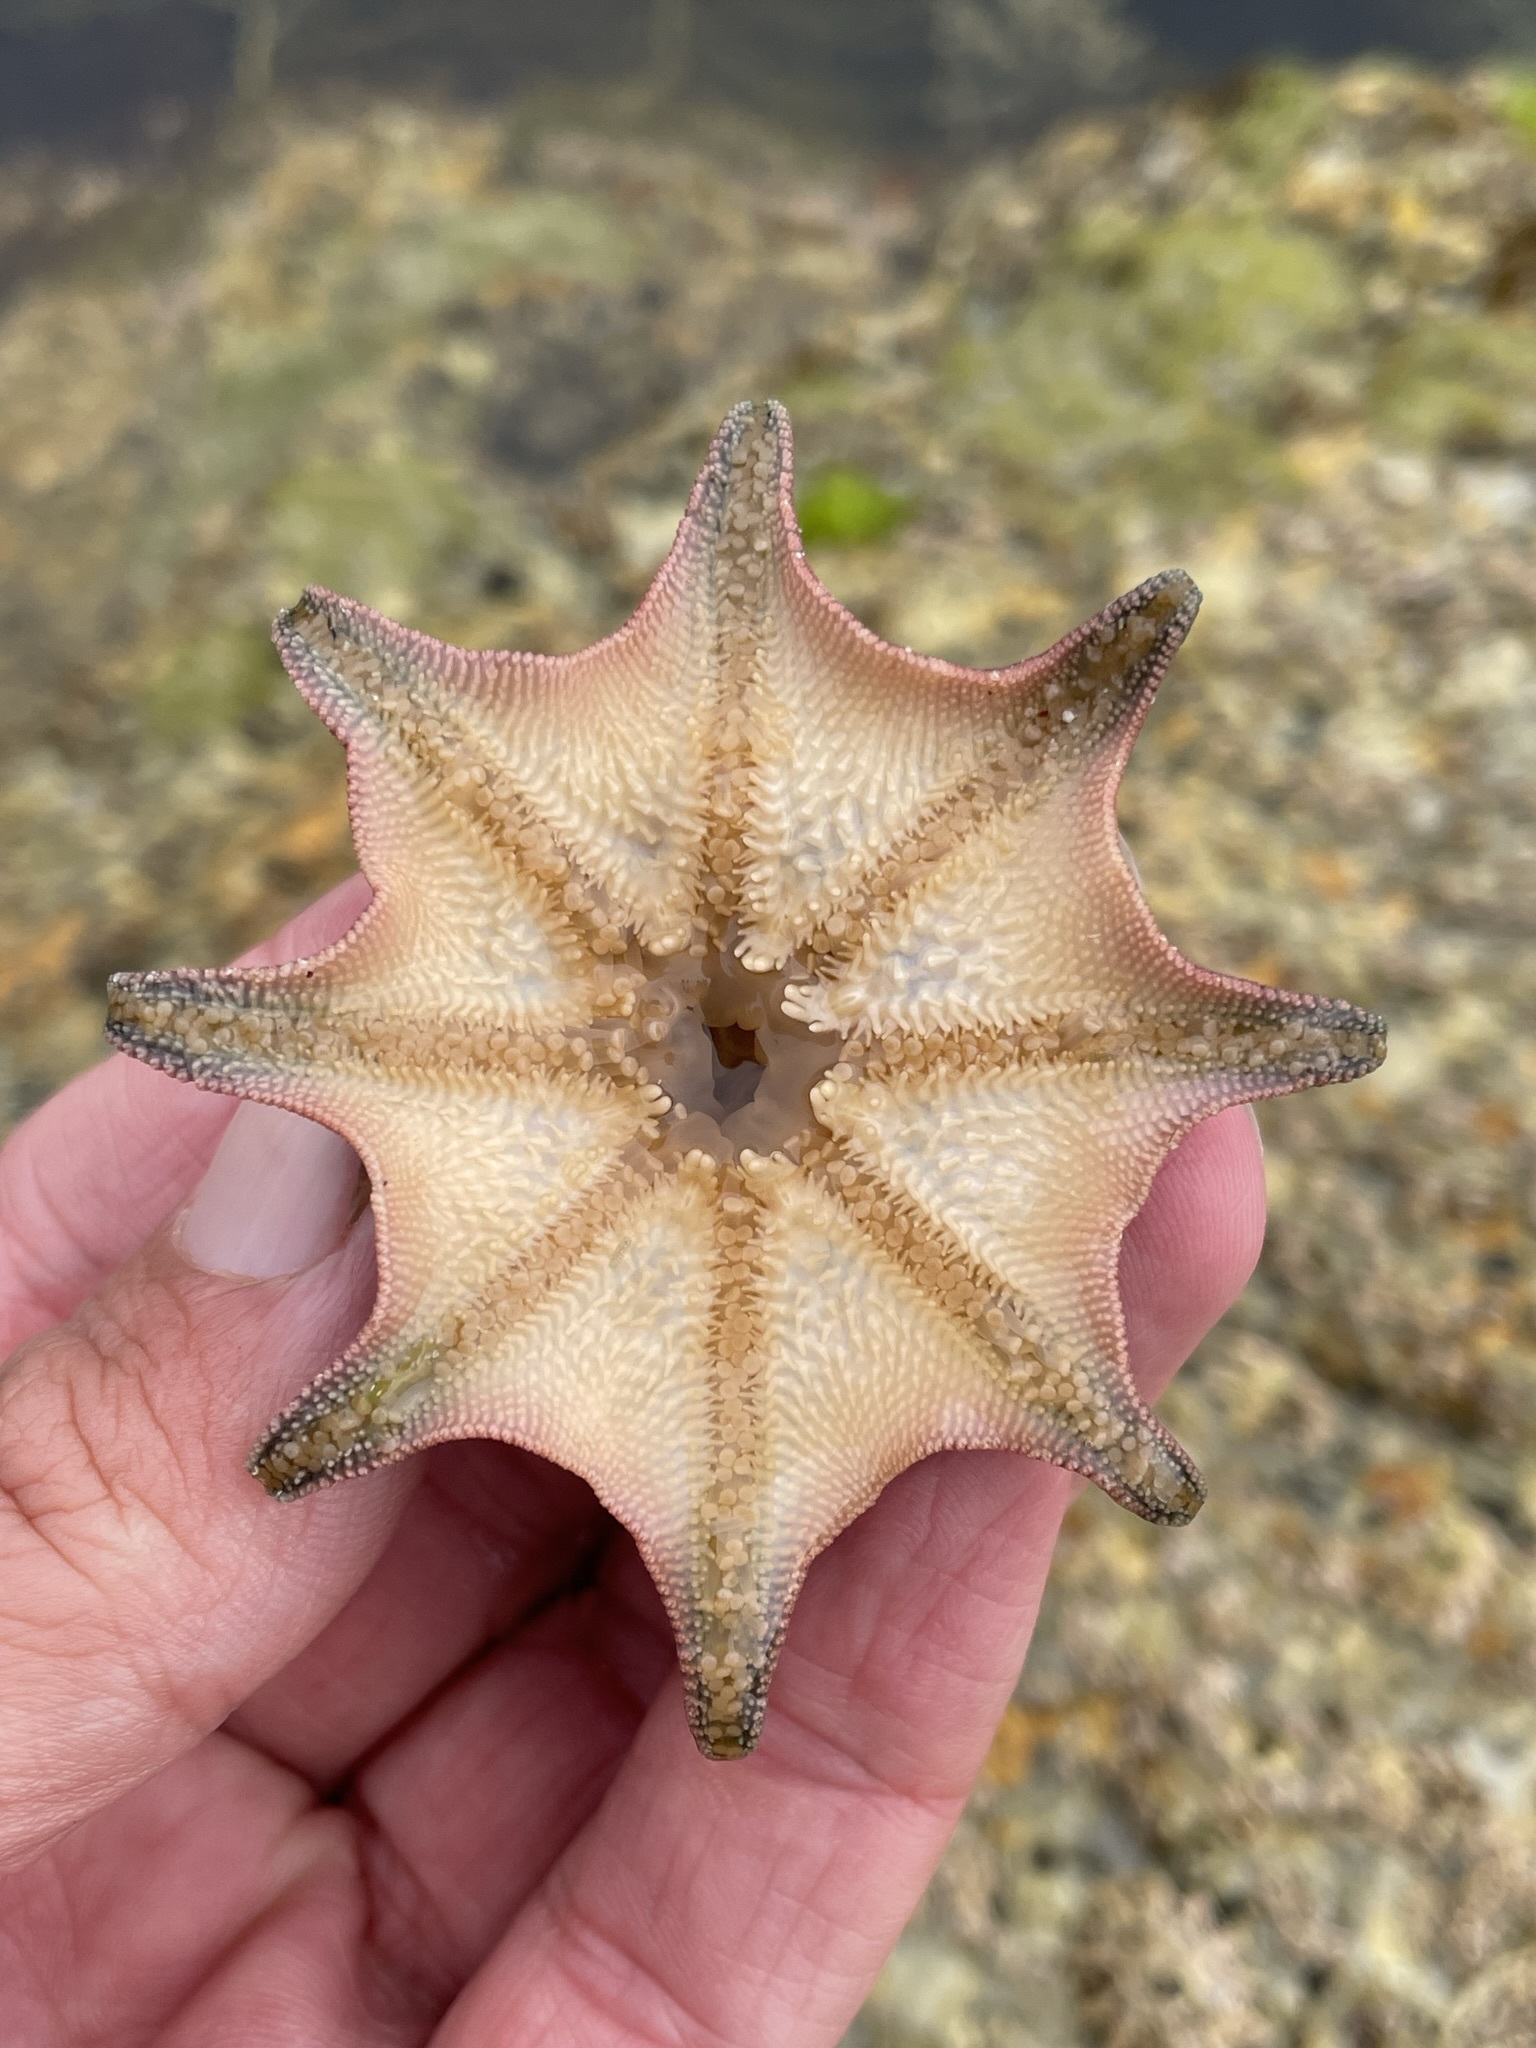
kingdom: Animalia
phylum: Echinodermata
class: Asteroidea
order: Valvatida
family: Asterinidae
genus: Meridiastra
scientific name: Meridiastra calcar
